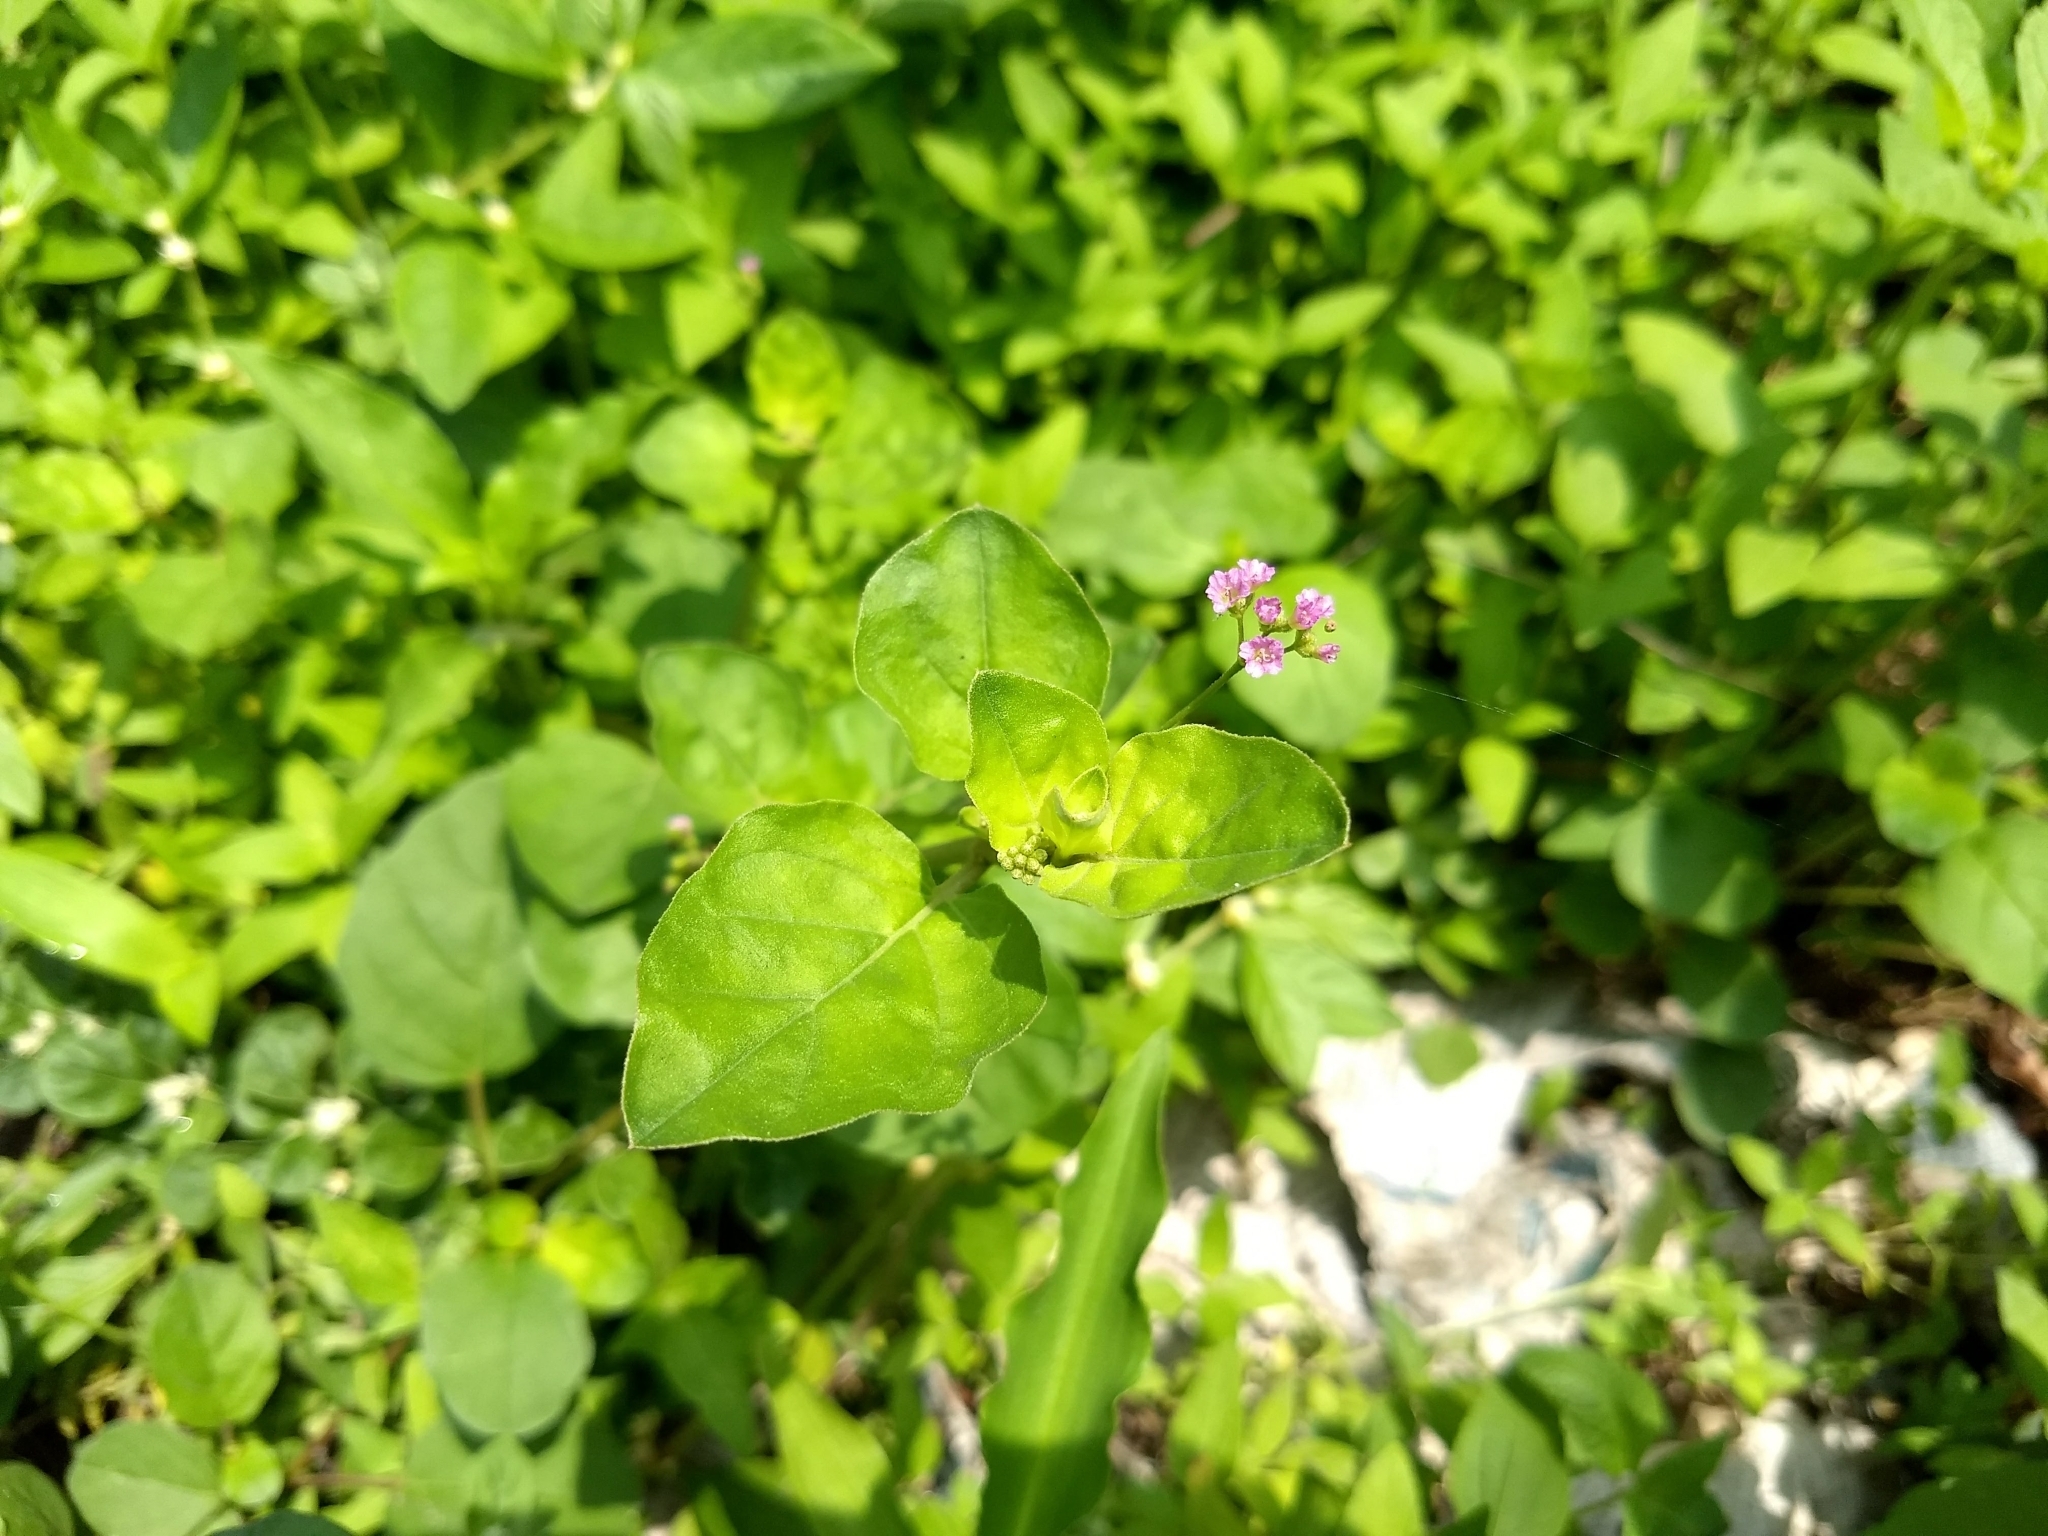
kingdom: Plantae
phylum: Tracheophyta
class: Magnoliopsida
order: Caryophyllales
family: Nyctaginaceae
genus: Boerhavia
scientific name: Boerhavia diffusa
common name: Red spiderling
